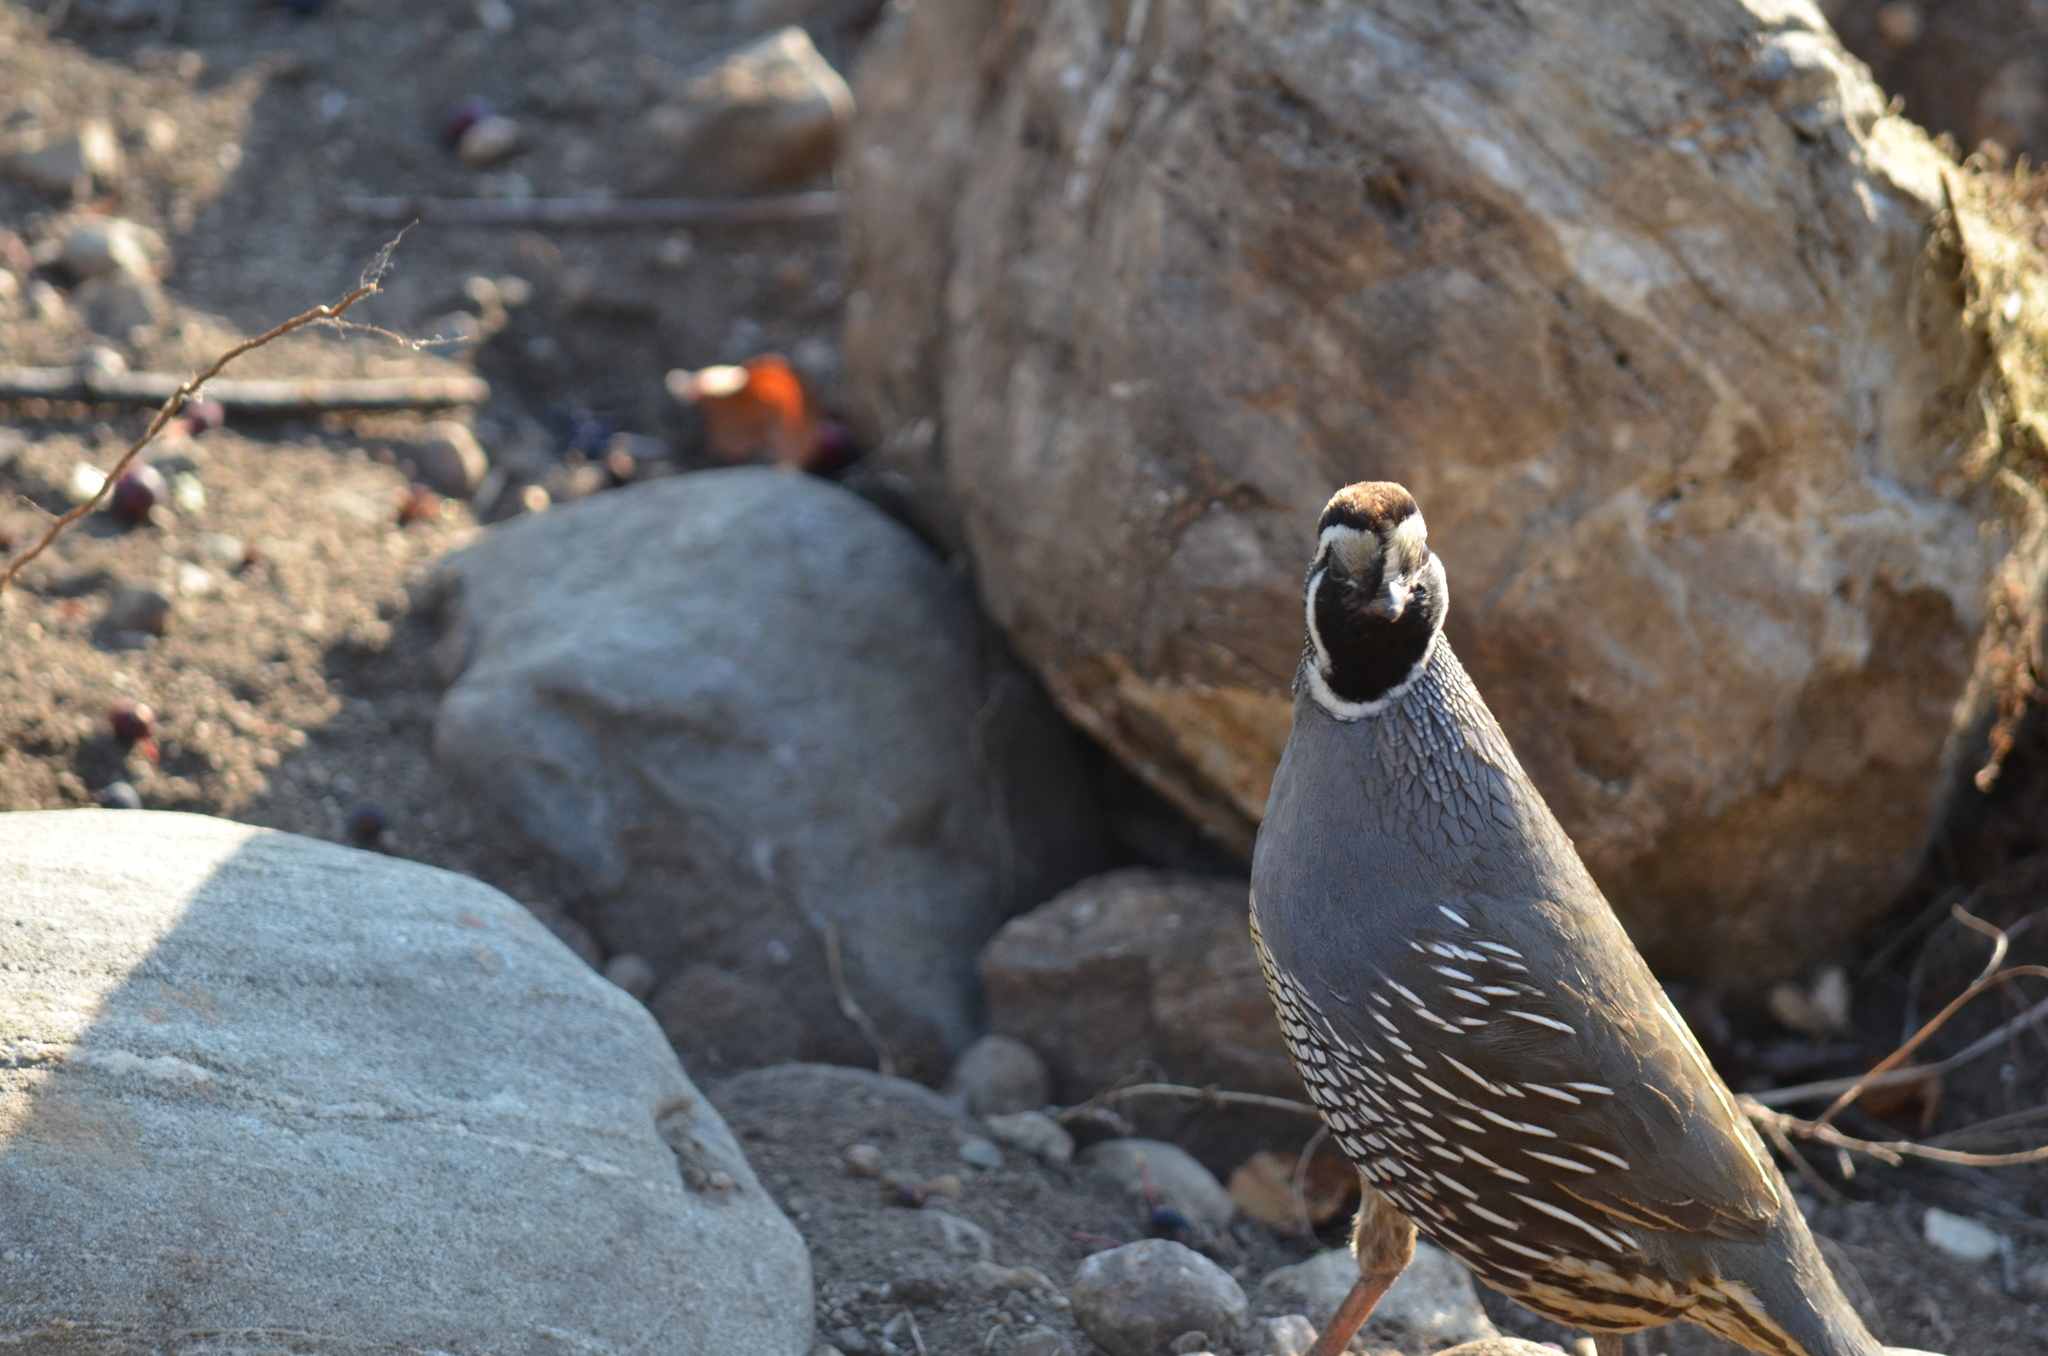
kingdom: Animalia
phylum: Chordata
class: Aves
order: Galliformes
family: Odontophoridae
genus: Callipepla
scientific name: Callipepla californica
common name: California quail
